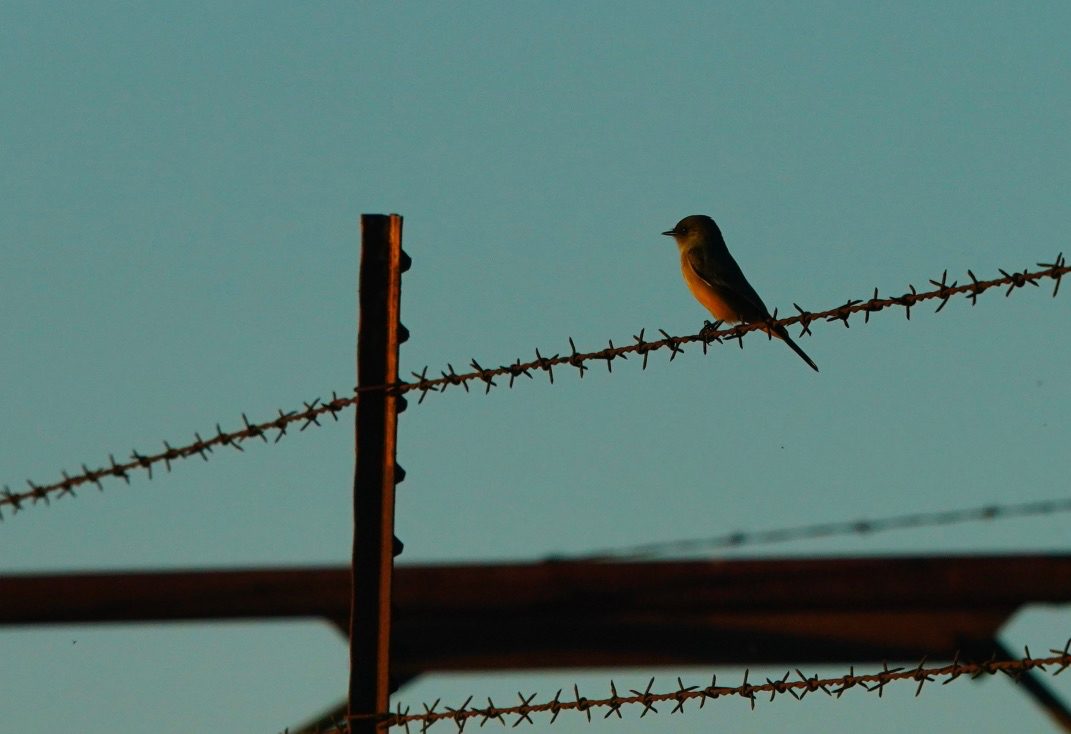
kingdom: Animalia
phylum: Chordata
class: Aves
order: Passeriformes
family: Tyrannidae
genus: Sayornis
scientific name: Sayornis saya
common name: Say's phoebe
